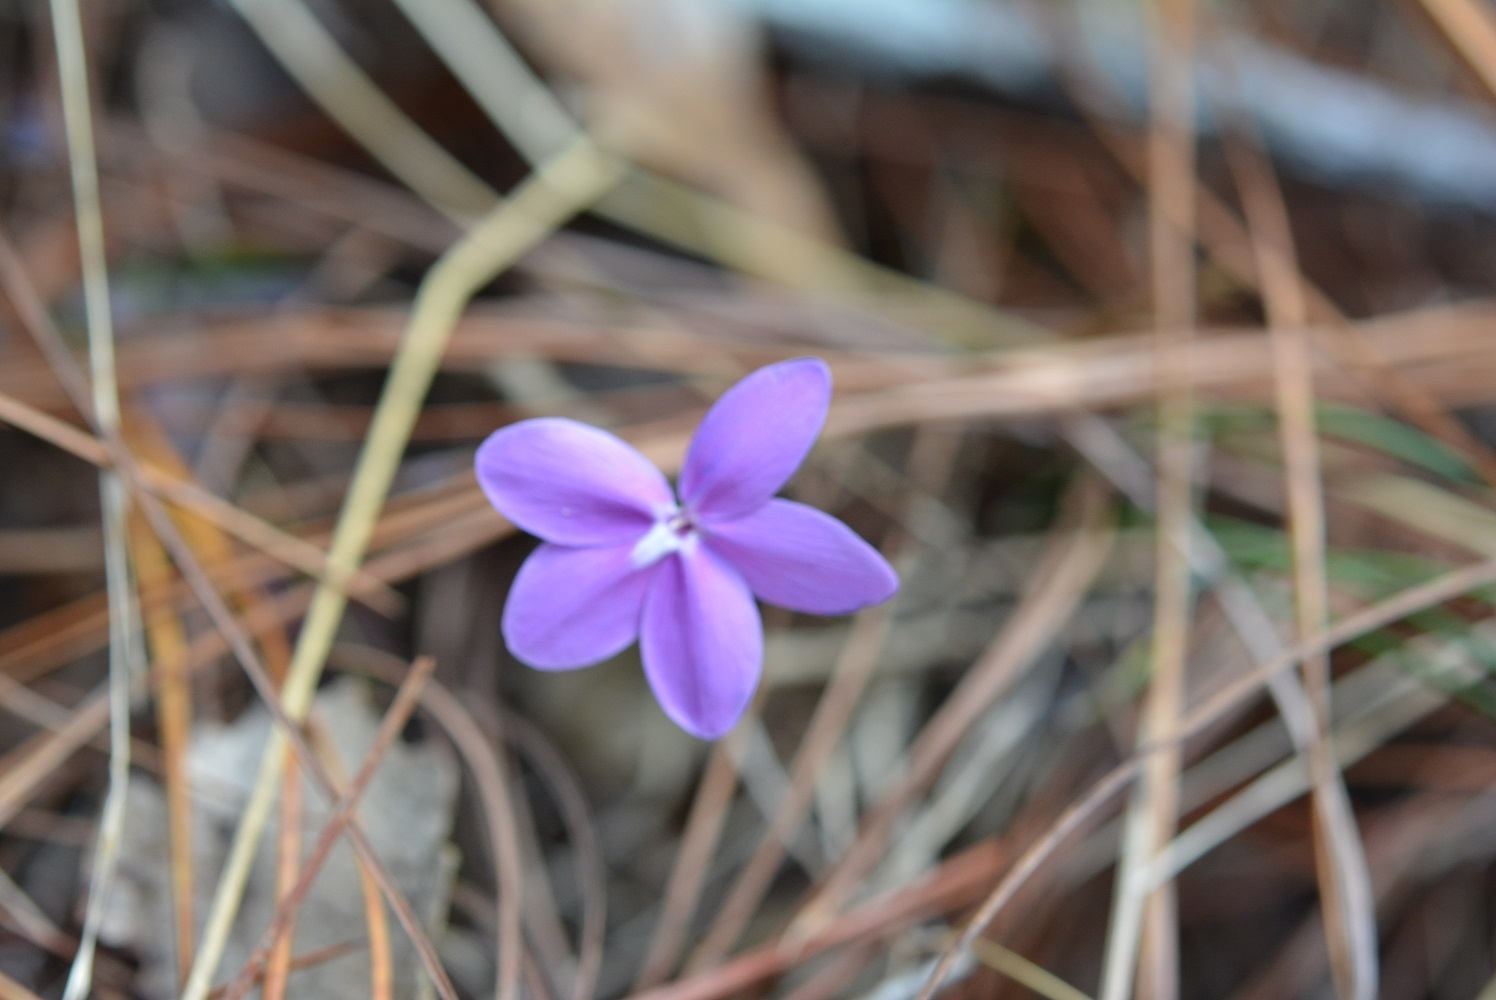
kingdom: Plantae
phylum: Tracheophyta
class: Magnoliopsida
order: Lamiales
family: Acanthaceae
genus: Pseuderanthemum
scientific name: Pseuderanthemum praecox
